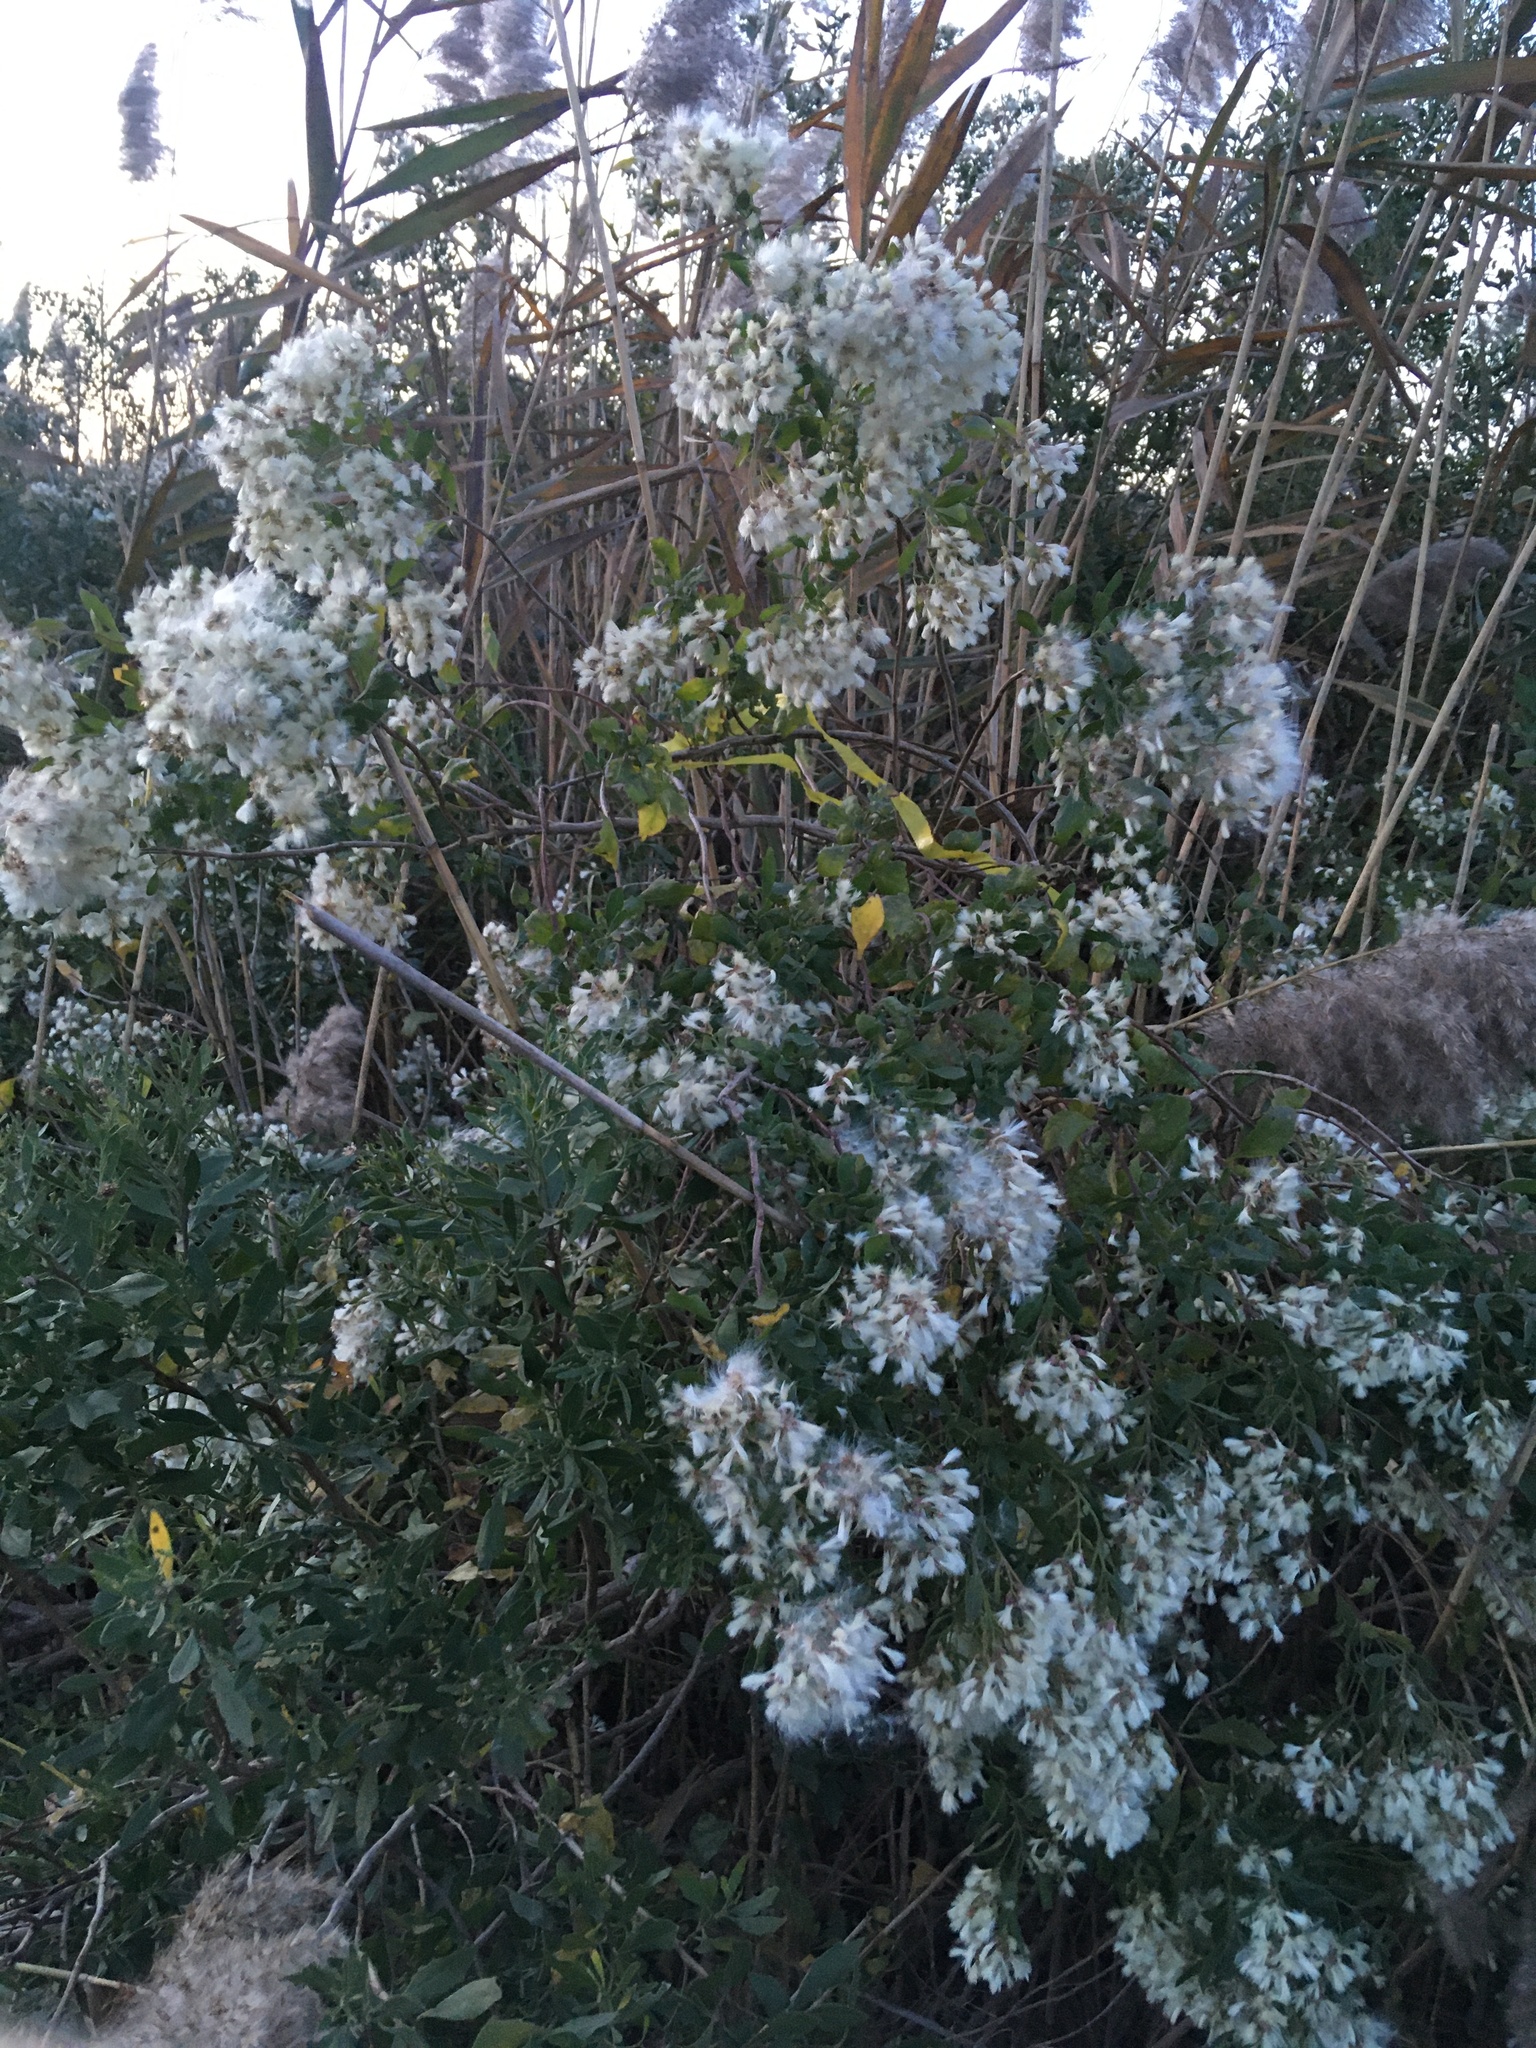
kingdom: Plantae
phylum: Tracheophyta
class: Magnoliopsida
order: Asterales
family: Asteraceae
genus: Baccharis
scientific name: Baccharis halimifolia
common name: Eastern baccharis
